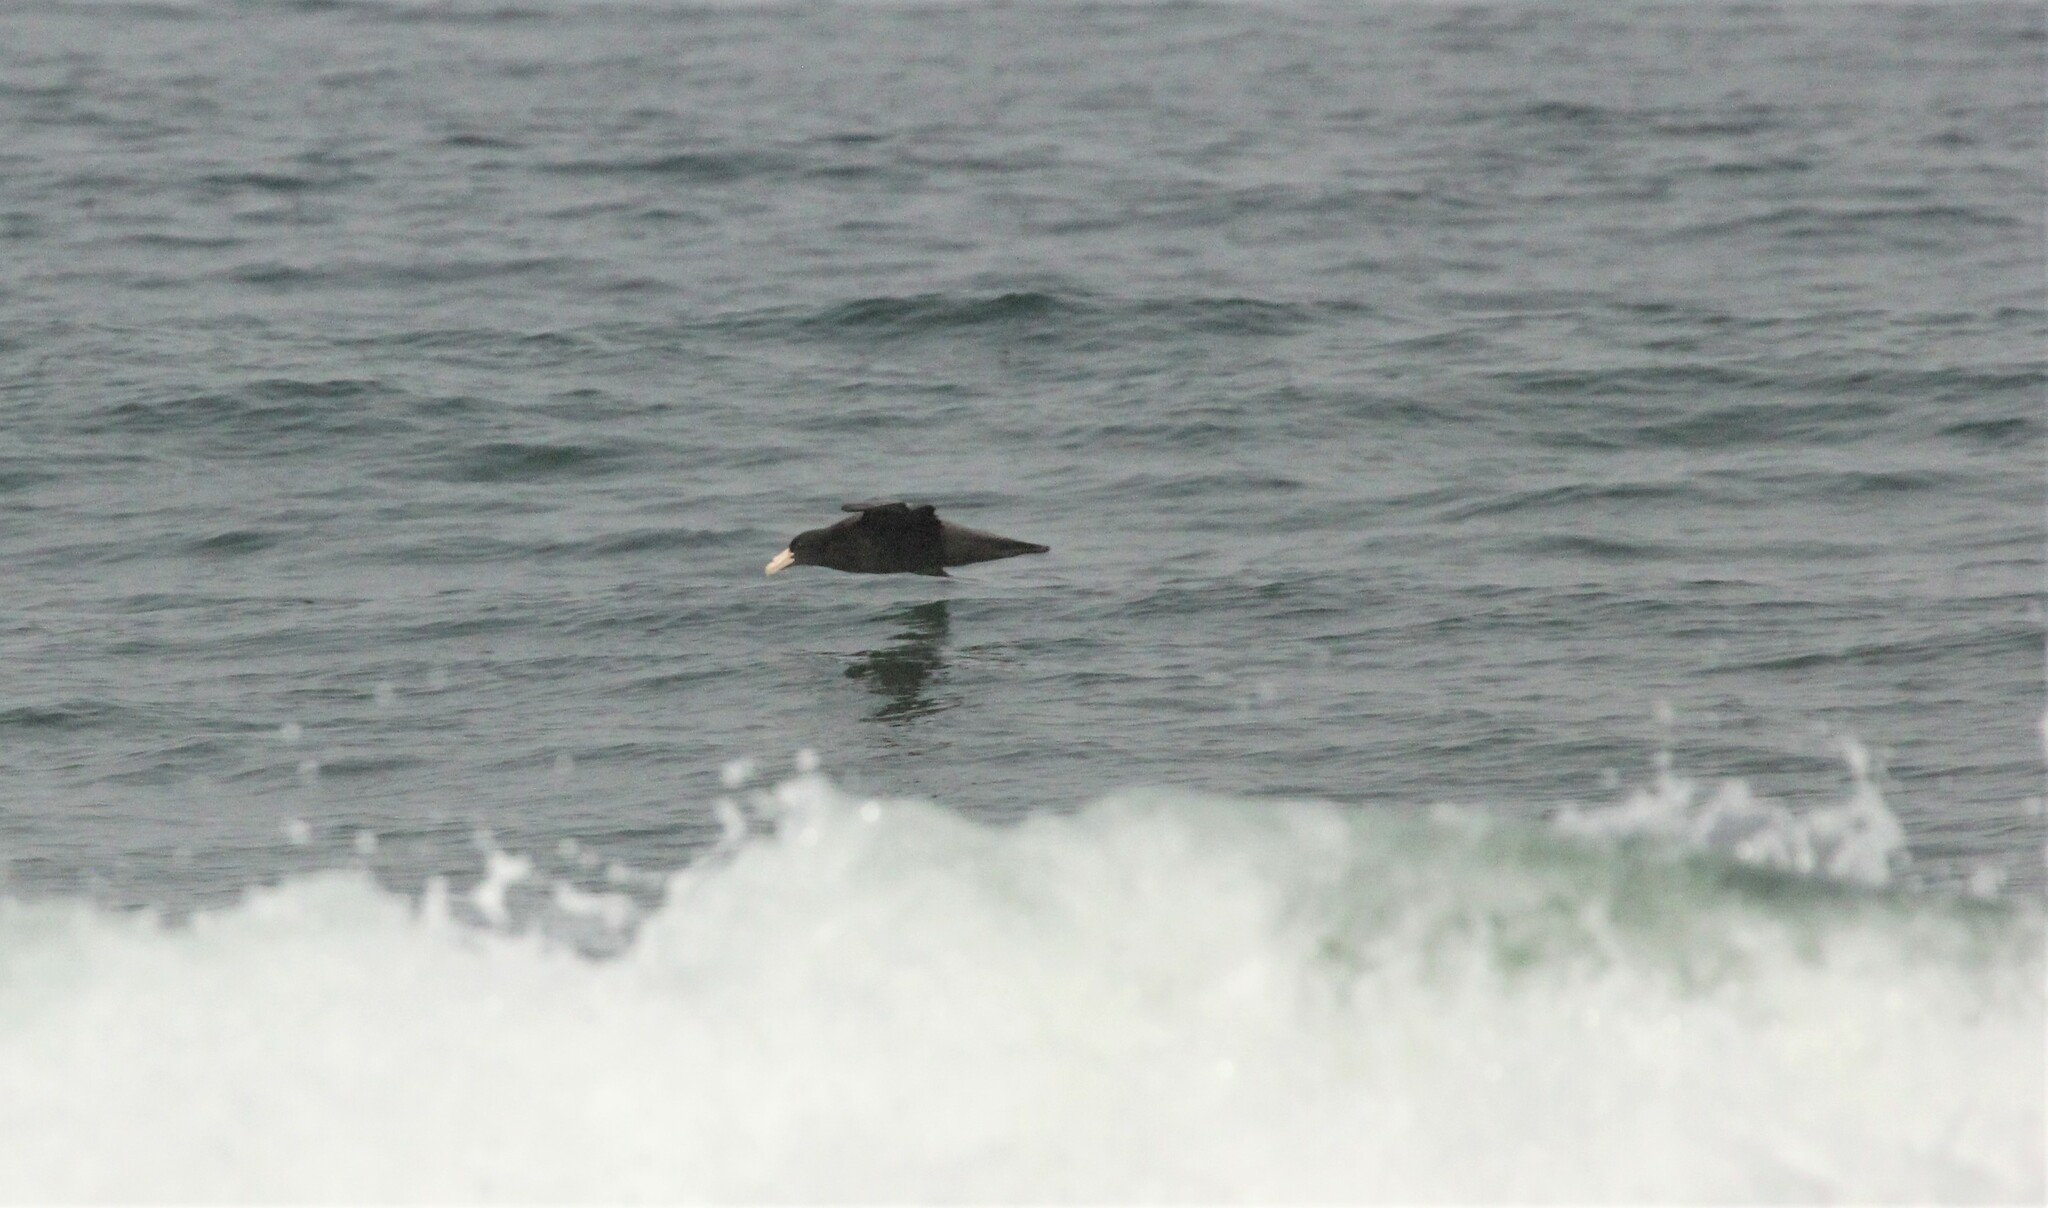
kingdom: Animalia
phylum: Chordata
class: Aves
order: Procellariiformes
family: Procellariidae
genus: Macronectes
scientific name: Macronectes giganteus
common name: Southern giant petrel
